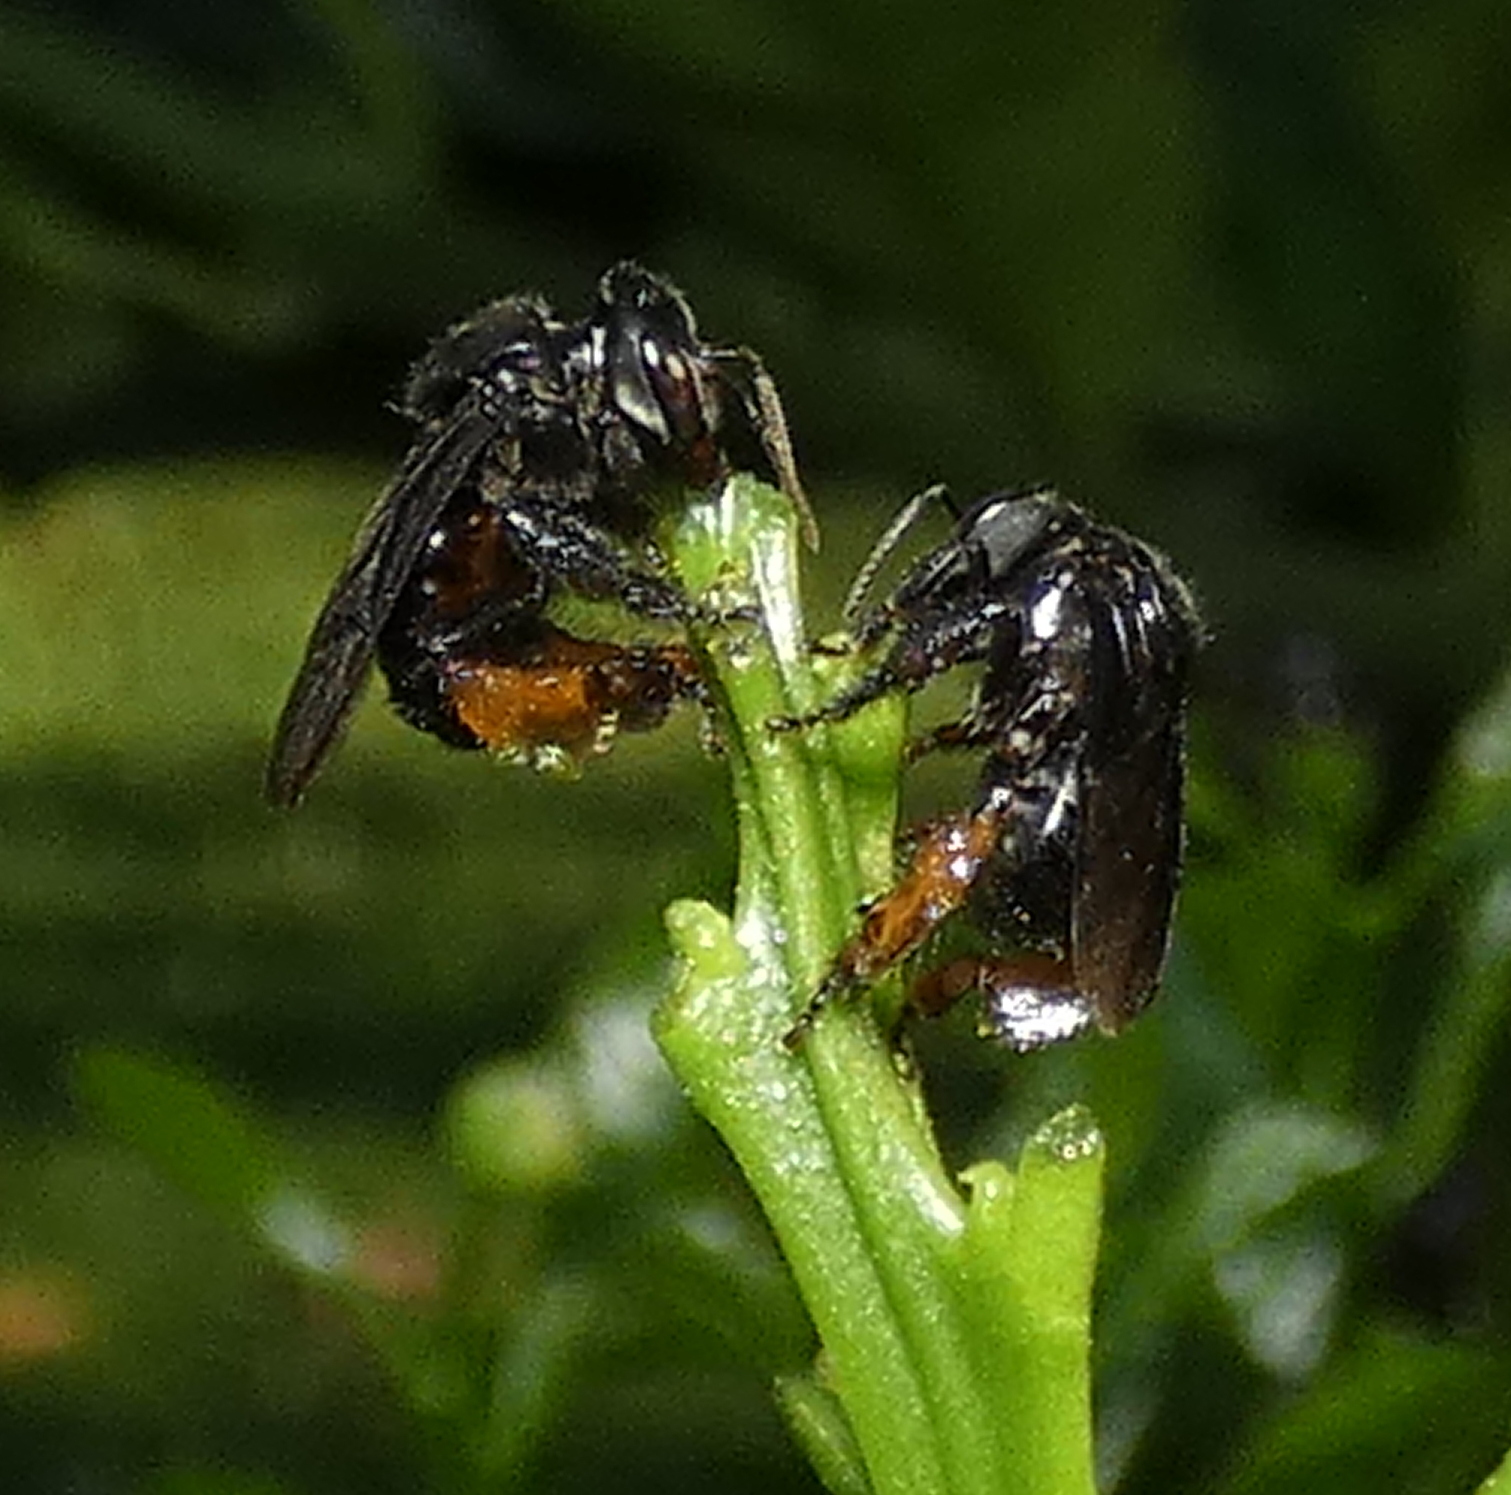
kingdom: Animalia
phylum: Arthropoda
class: Insecta
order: Hymenoptera
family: Apidae
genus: Trigona
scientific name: Trigona spinipes
